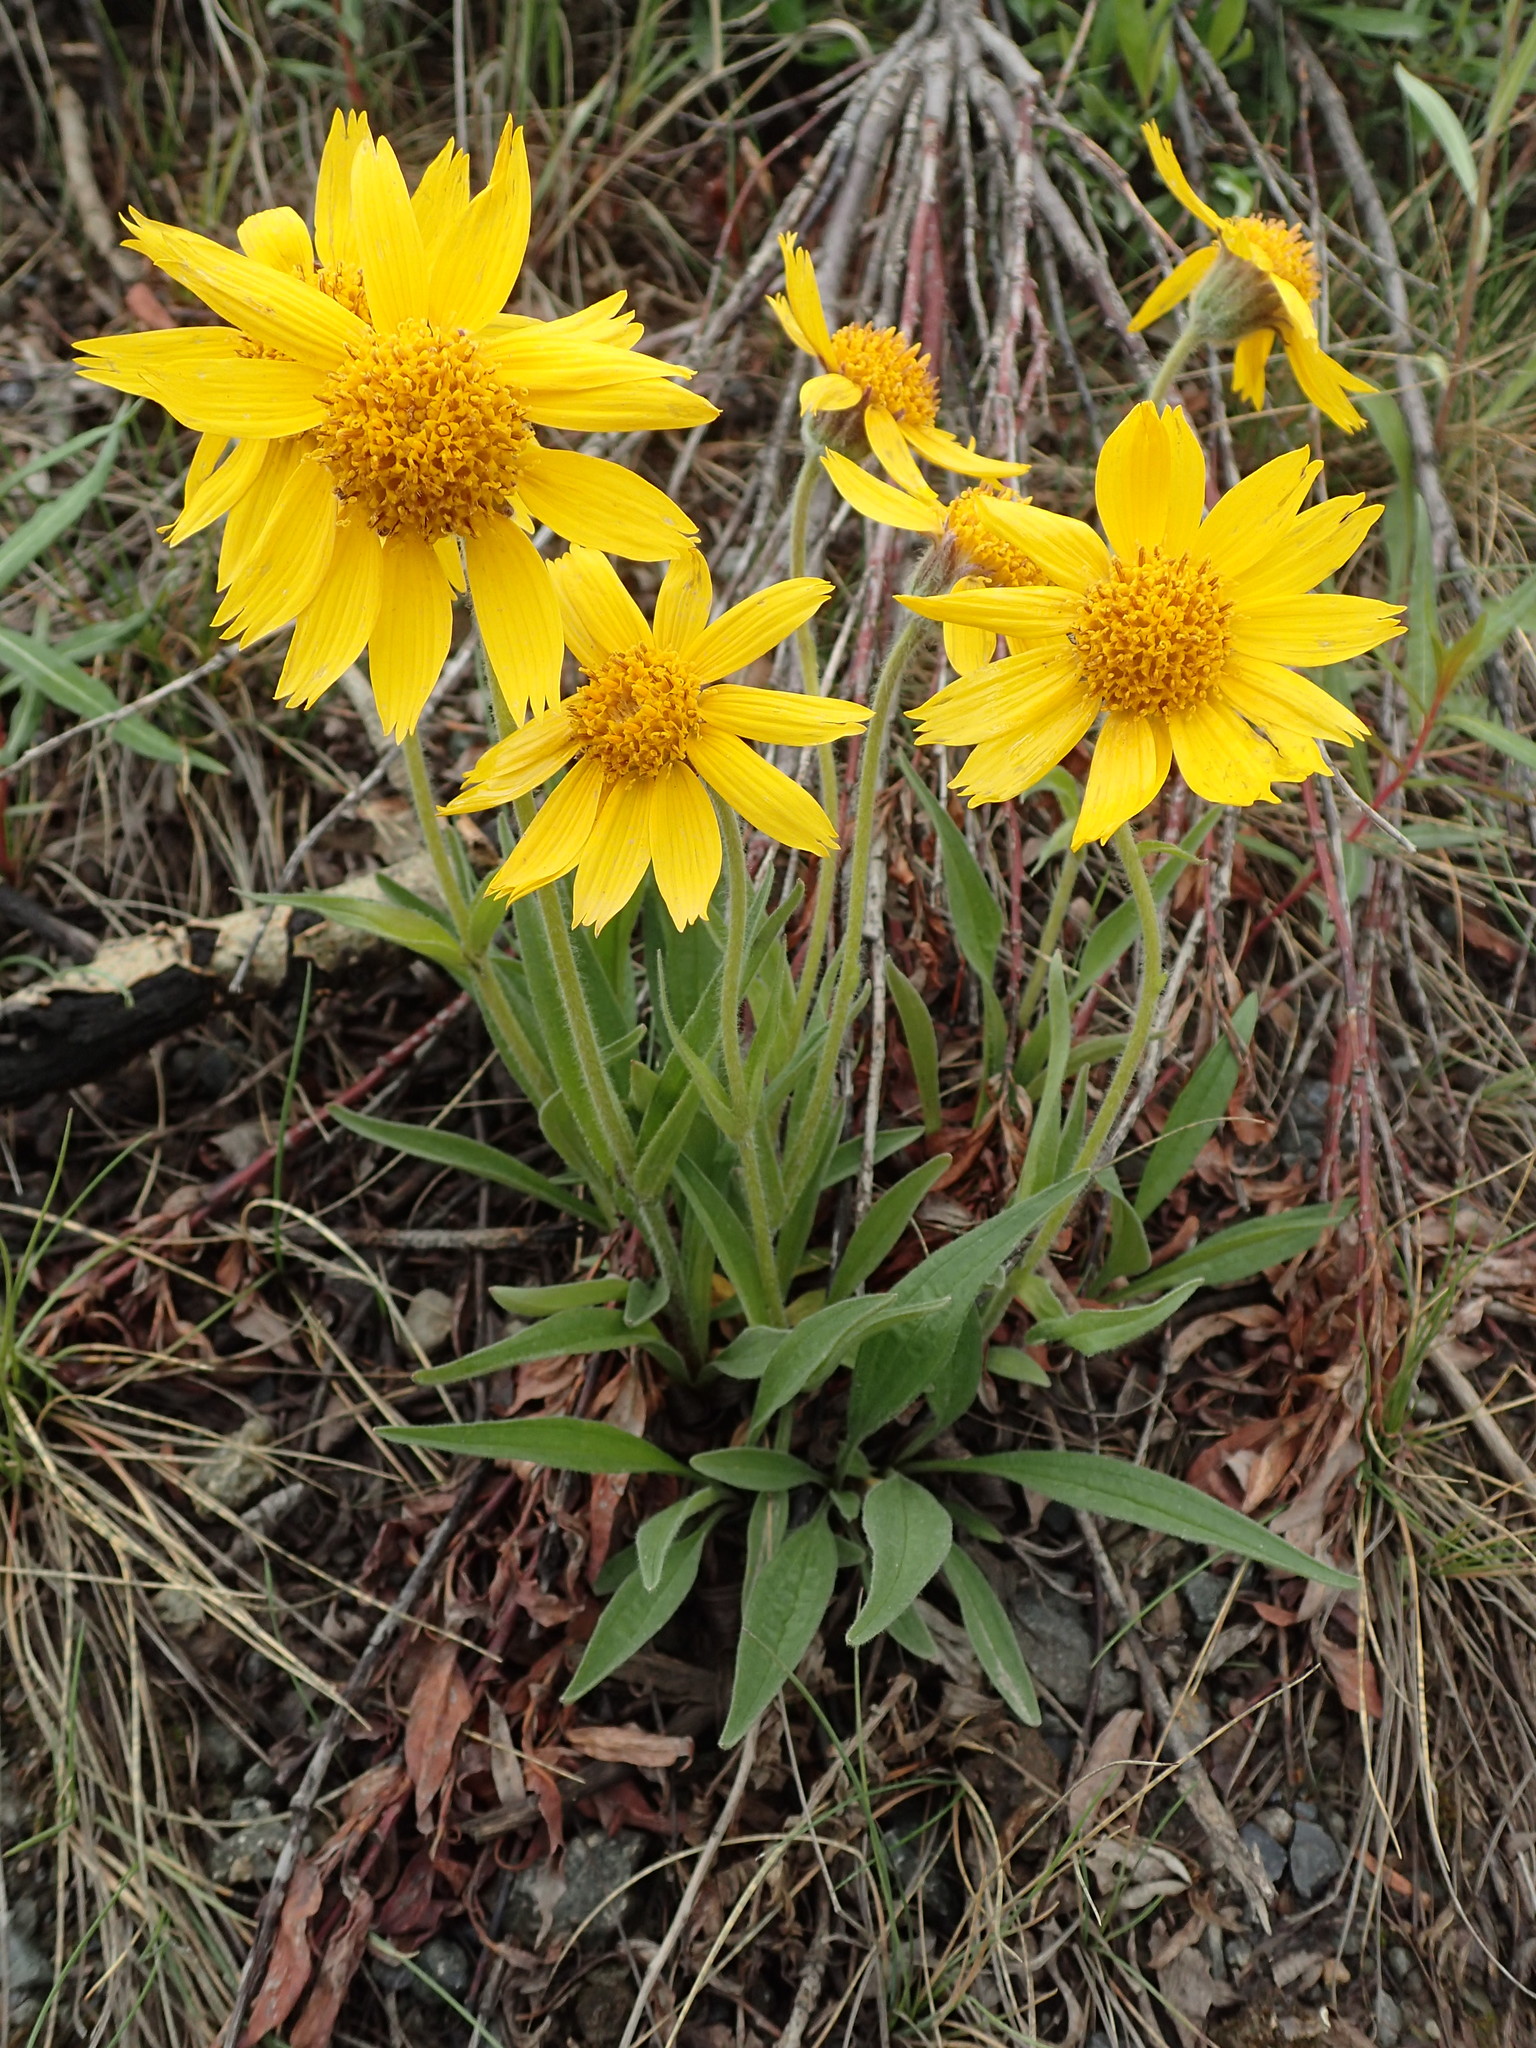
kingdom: Plantae
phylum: Tracheophyta
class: Magnoliopsida
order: Asterales
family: Asteraceae
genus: Arnica
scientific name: Arnica angustifolia
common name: Arctic arnica
